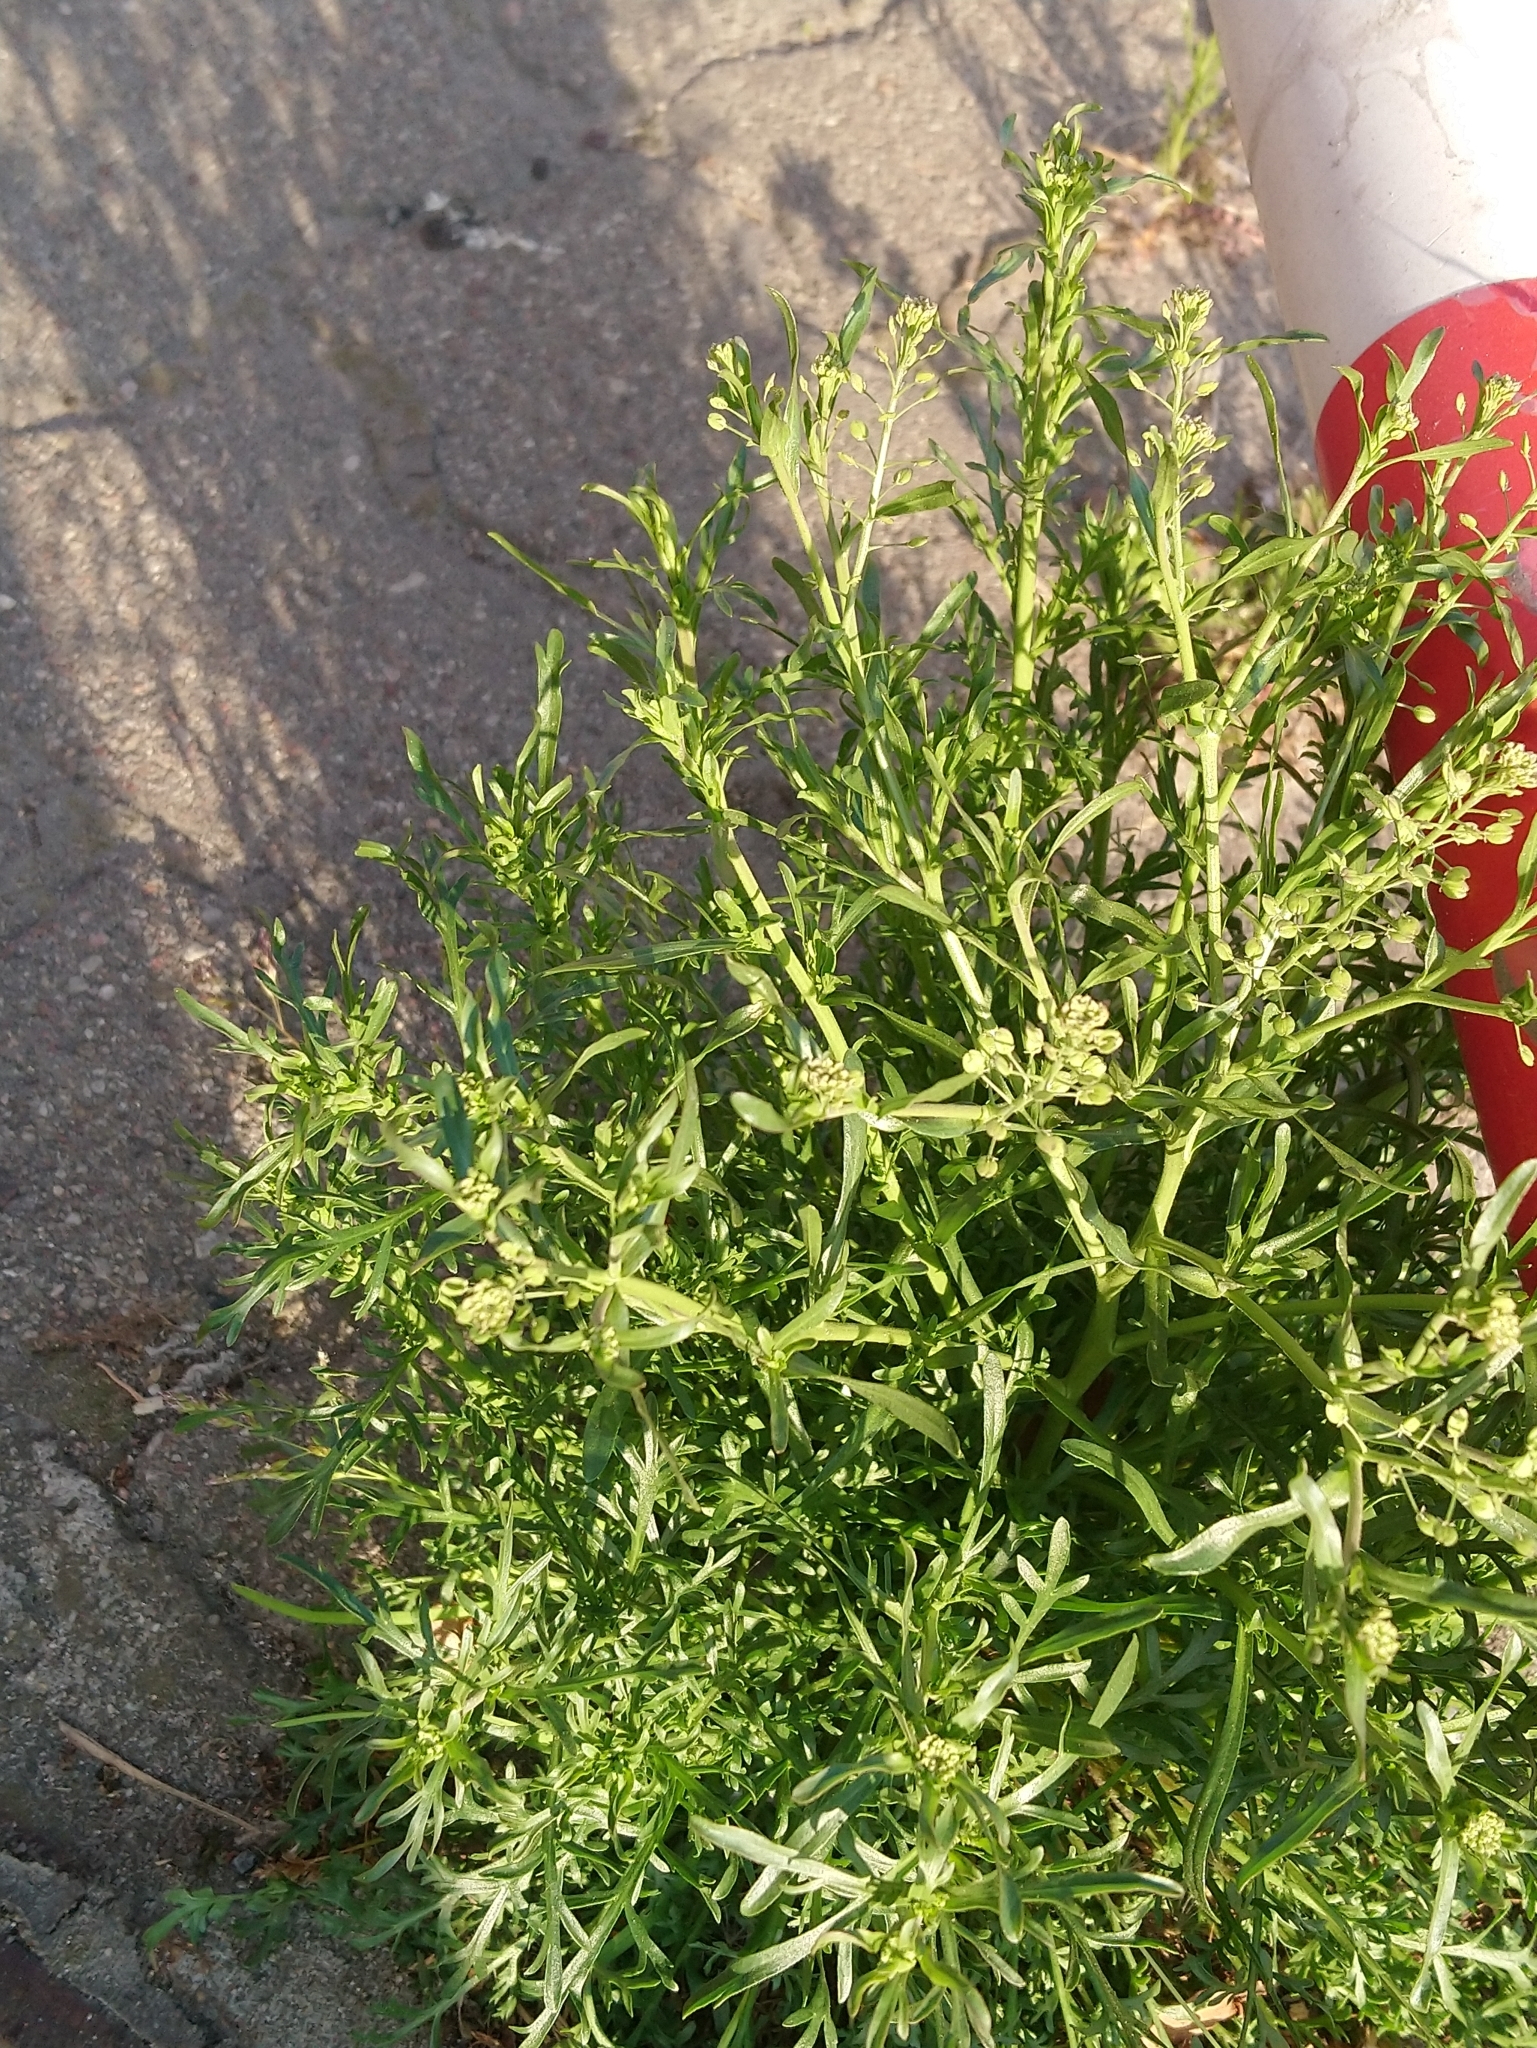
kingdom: Plantae
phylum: Tracheophyta
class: Magnoliopsida
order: Brassicales
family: Brassicaceae
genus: Lepidium
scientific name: Lepidium ruderale
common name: Narrow-leaved pepperwort
